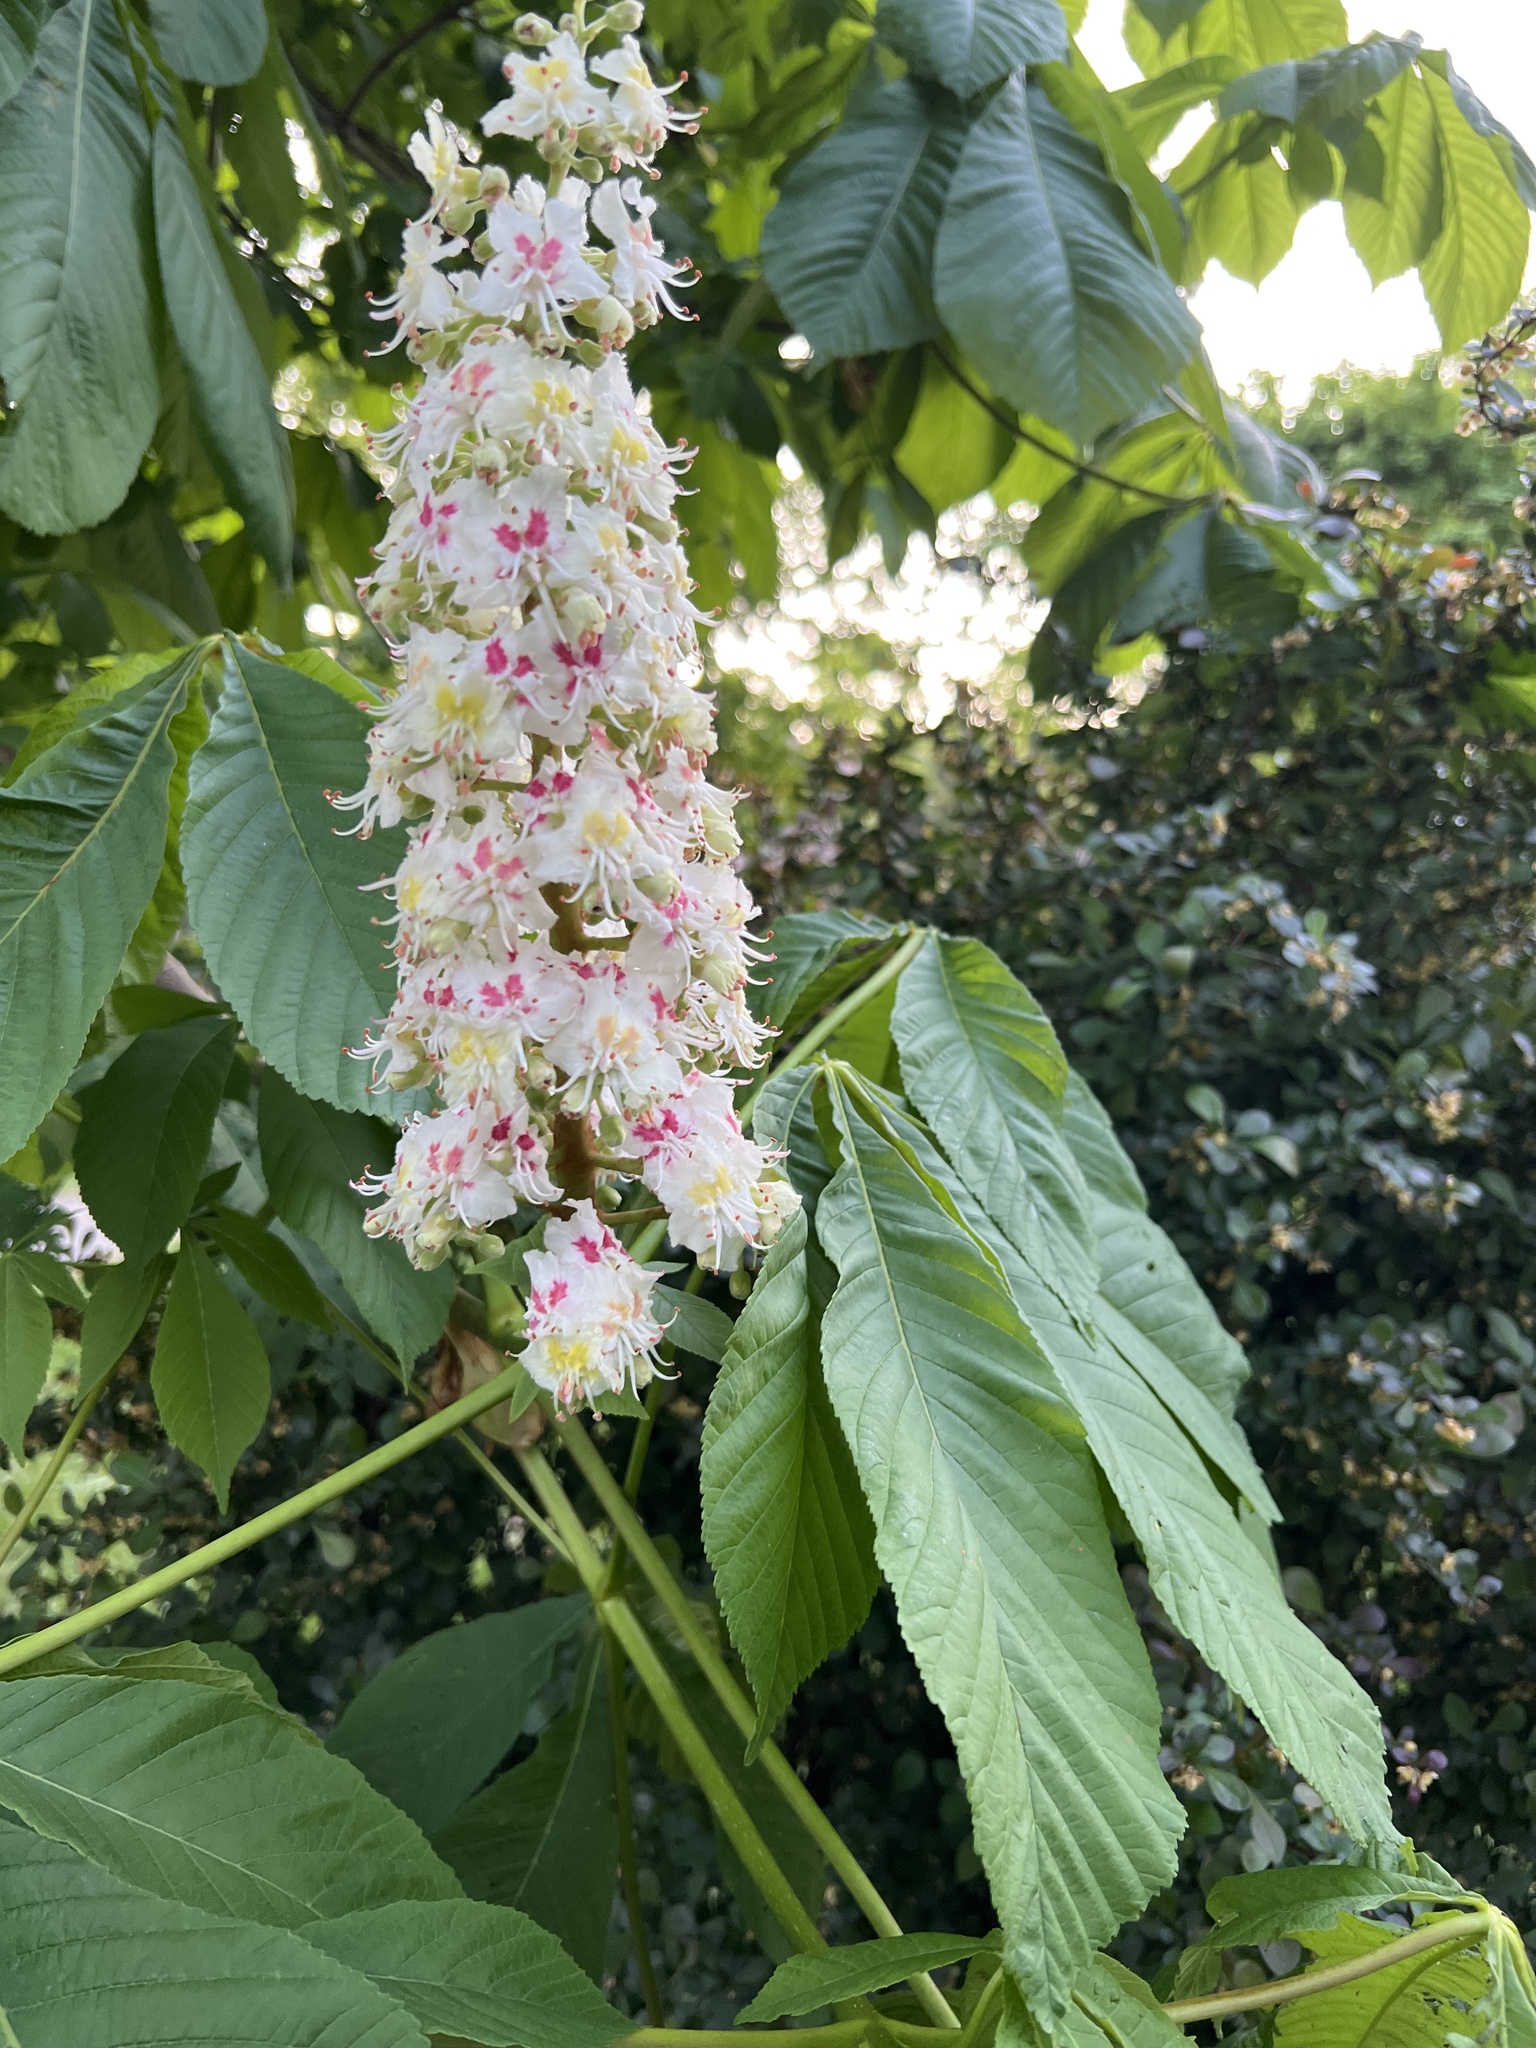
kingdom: Plantae
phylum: Tracheophyta
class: Magnoliopsida
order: Sapindales
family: Sapindaceae
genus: Aesculus
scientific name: Aesculus hippocastanum
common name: Horse-chestnut
